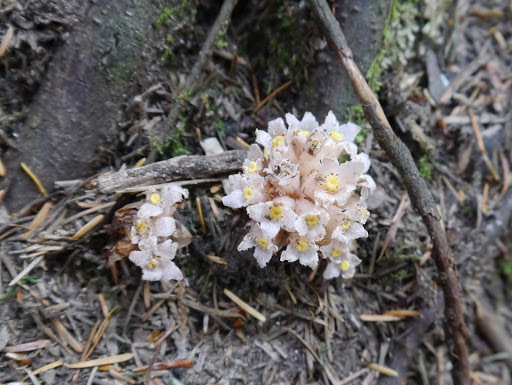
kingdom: Plantae
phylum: Tracheophyta
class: Magnoliopsida
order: Ericales
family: Ericaceae
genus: Hemitomes
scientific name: Hemitomes congestum
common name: Cone plant
